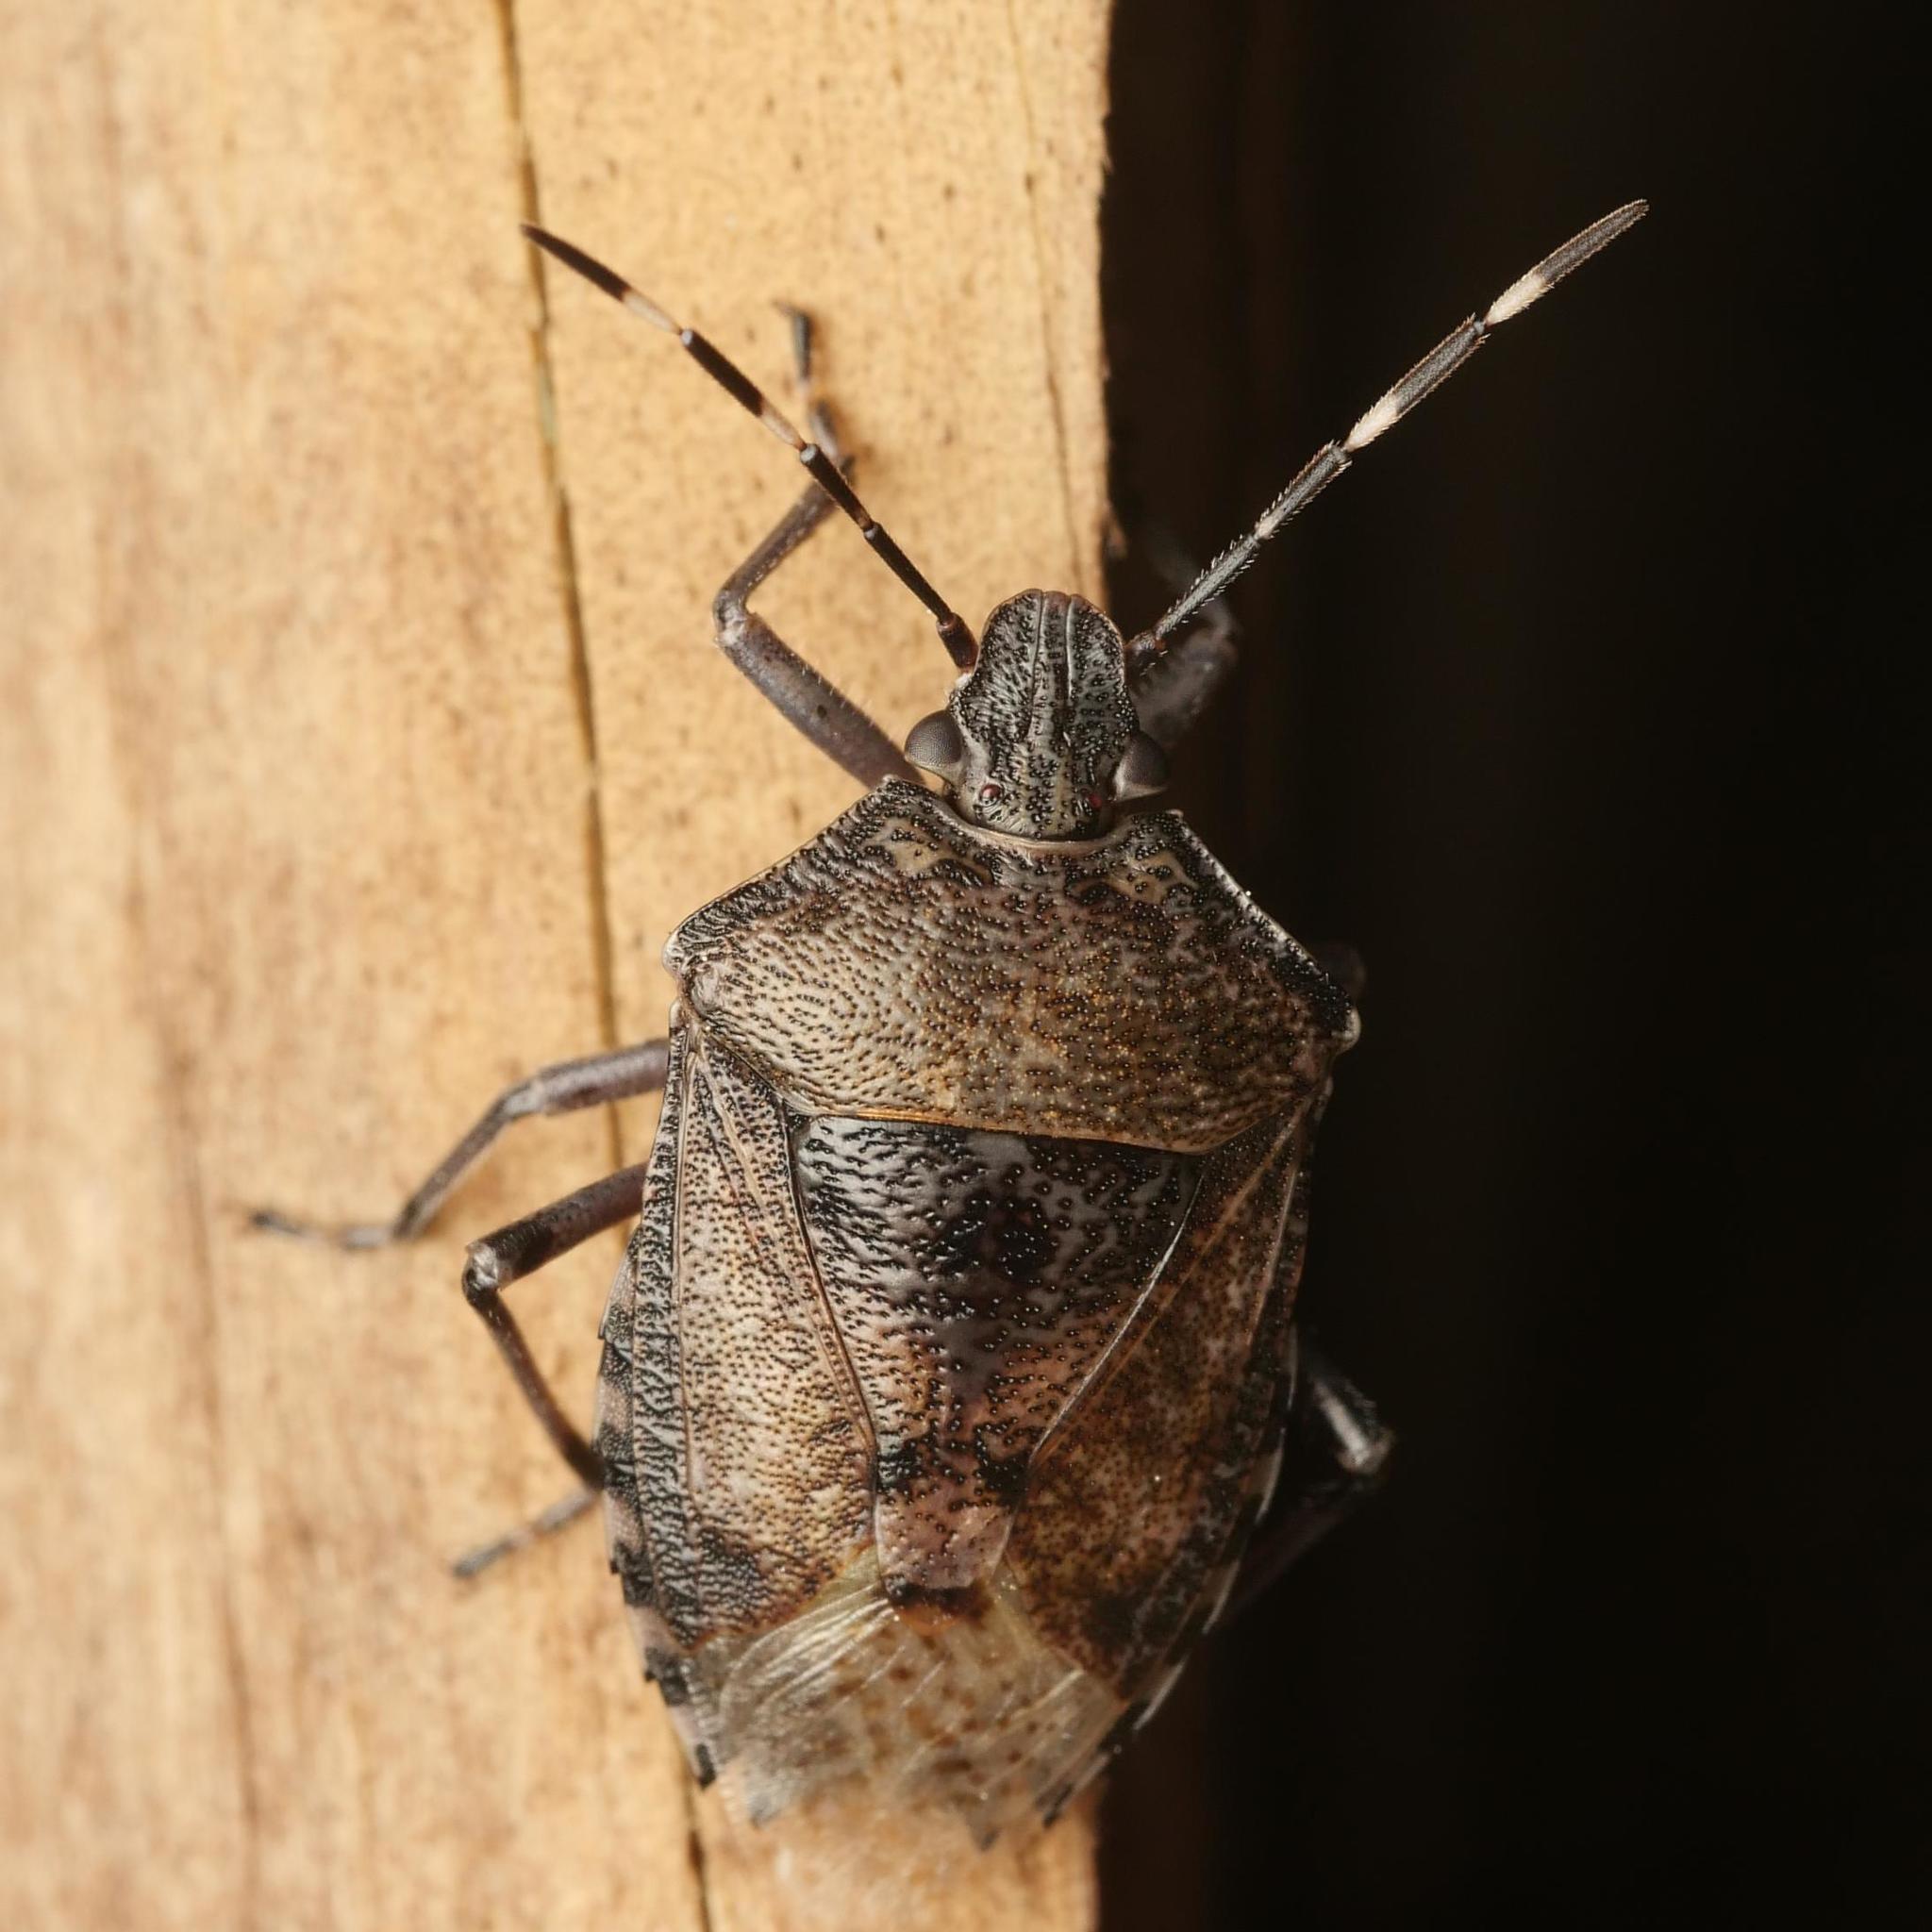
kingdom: Animalia
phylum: Arthropoda
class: Insecta
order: Hemiptera
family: Pentatomidae
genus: Rhaphigaster
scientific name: Rhaphigaster nebulosa
